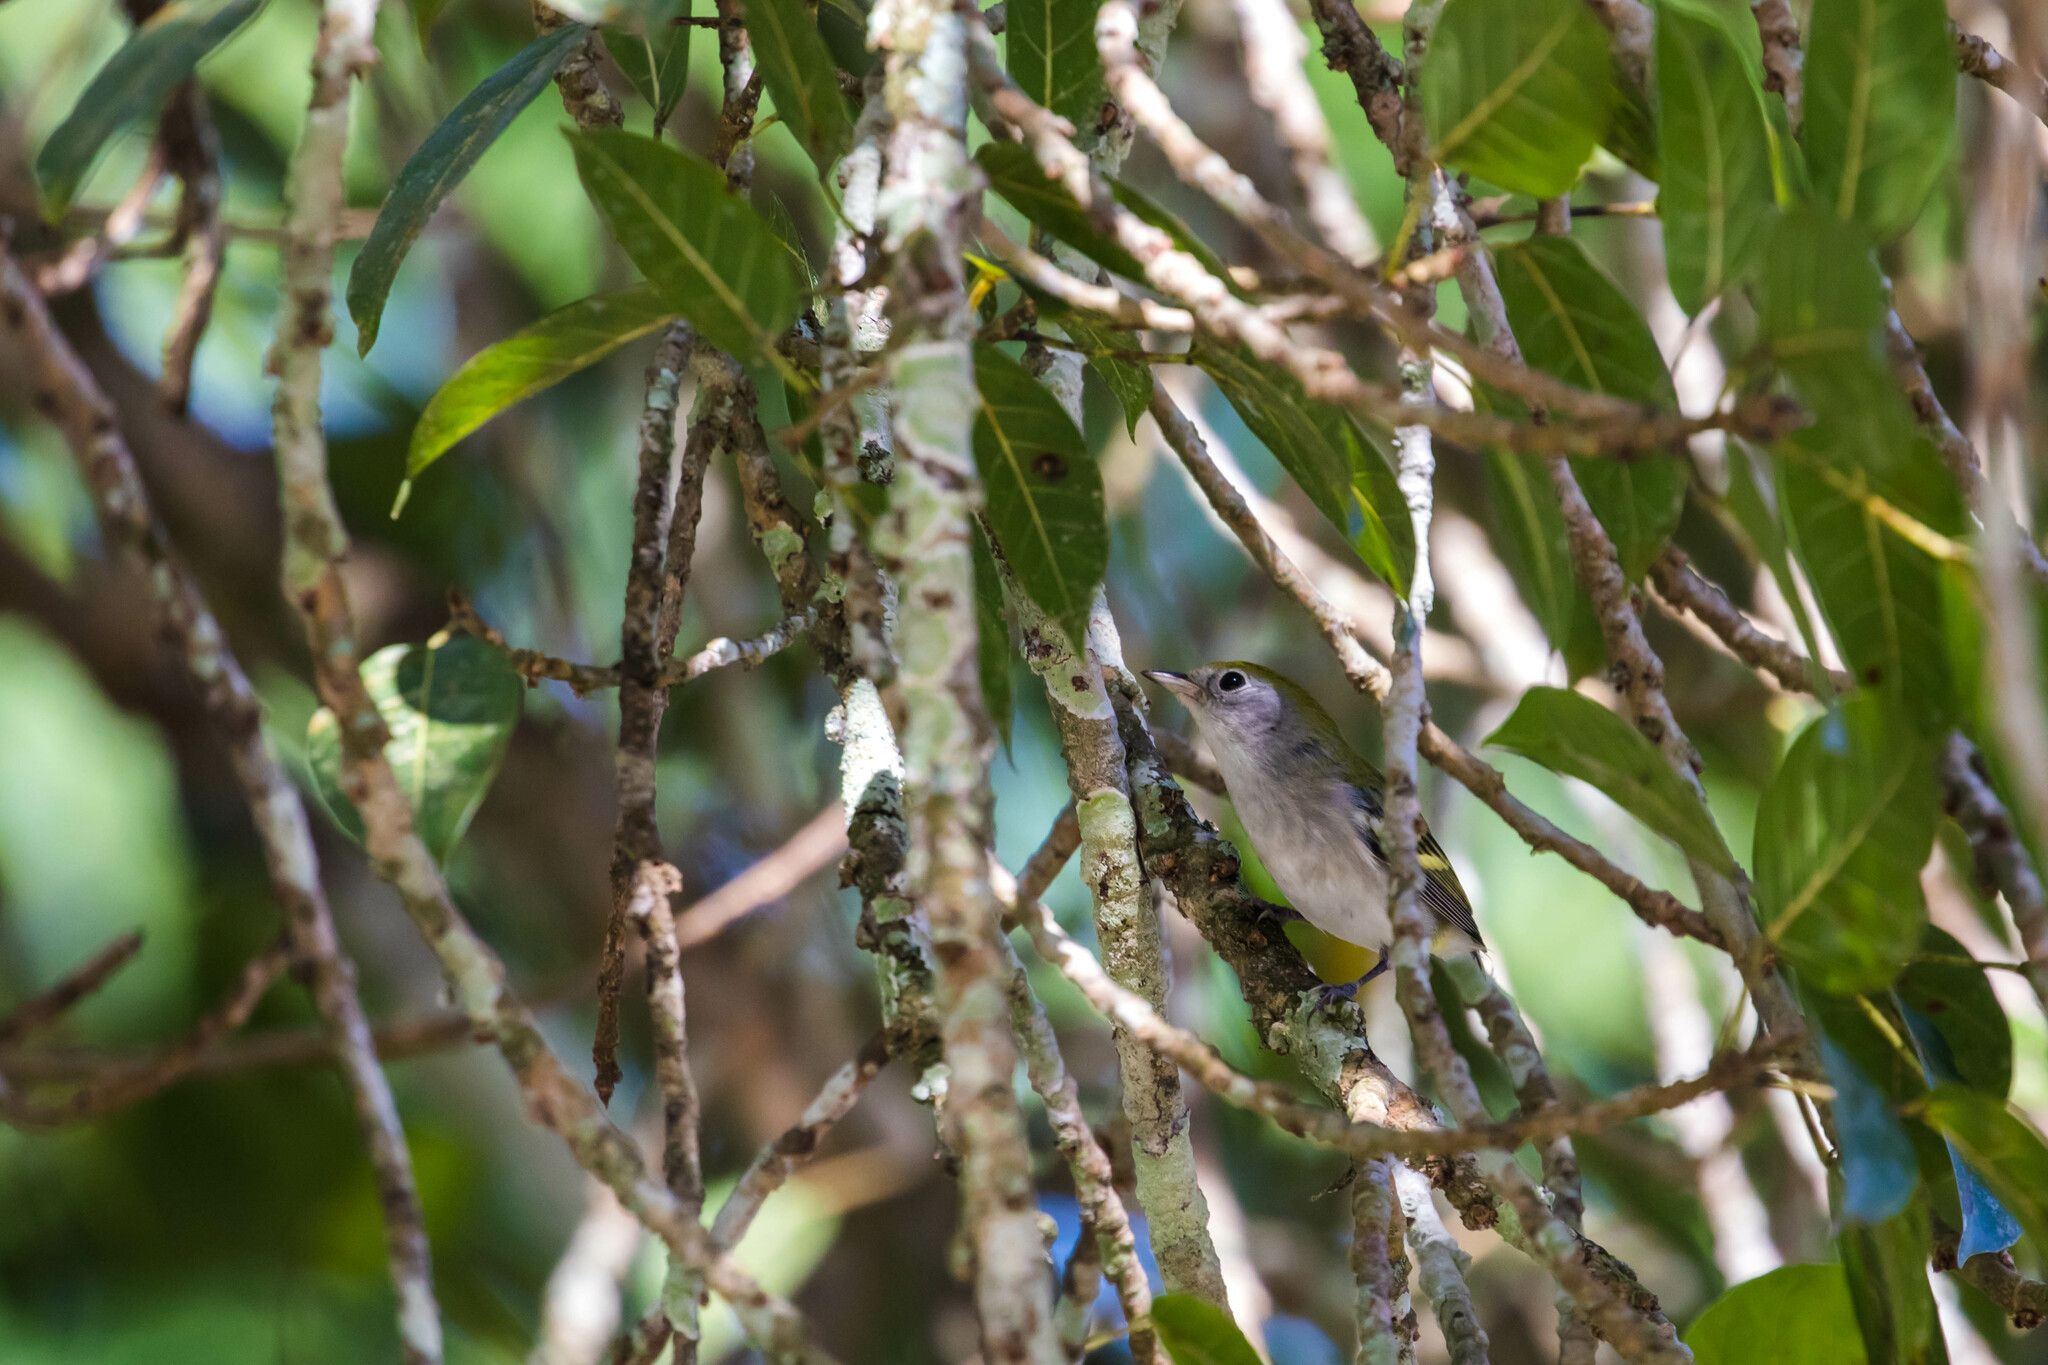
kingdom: Animalia
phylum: Chordata
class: Aves
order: Passeriformes
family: Parulidae
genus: Setophaga
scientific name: Setophaga pensylvanica
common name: Chestnut-sided warbler
